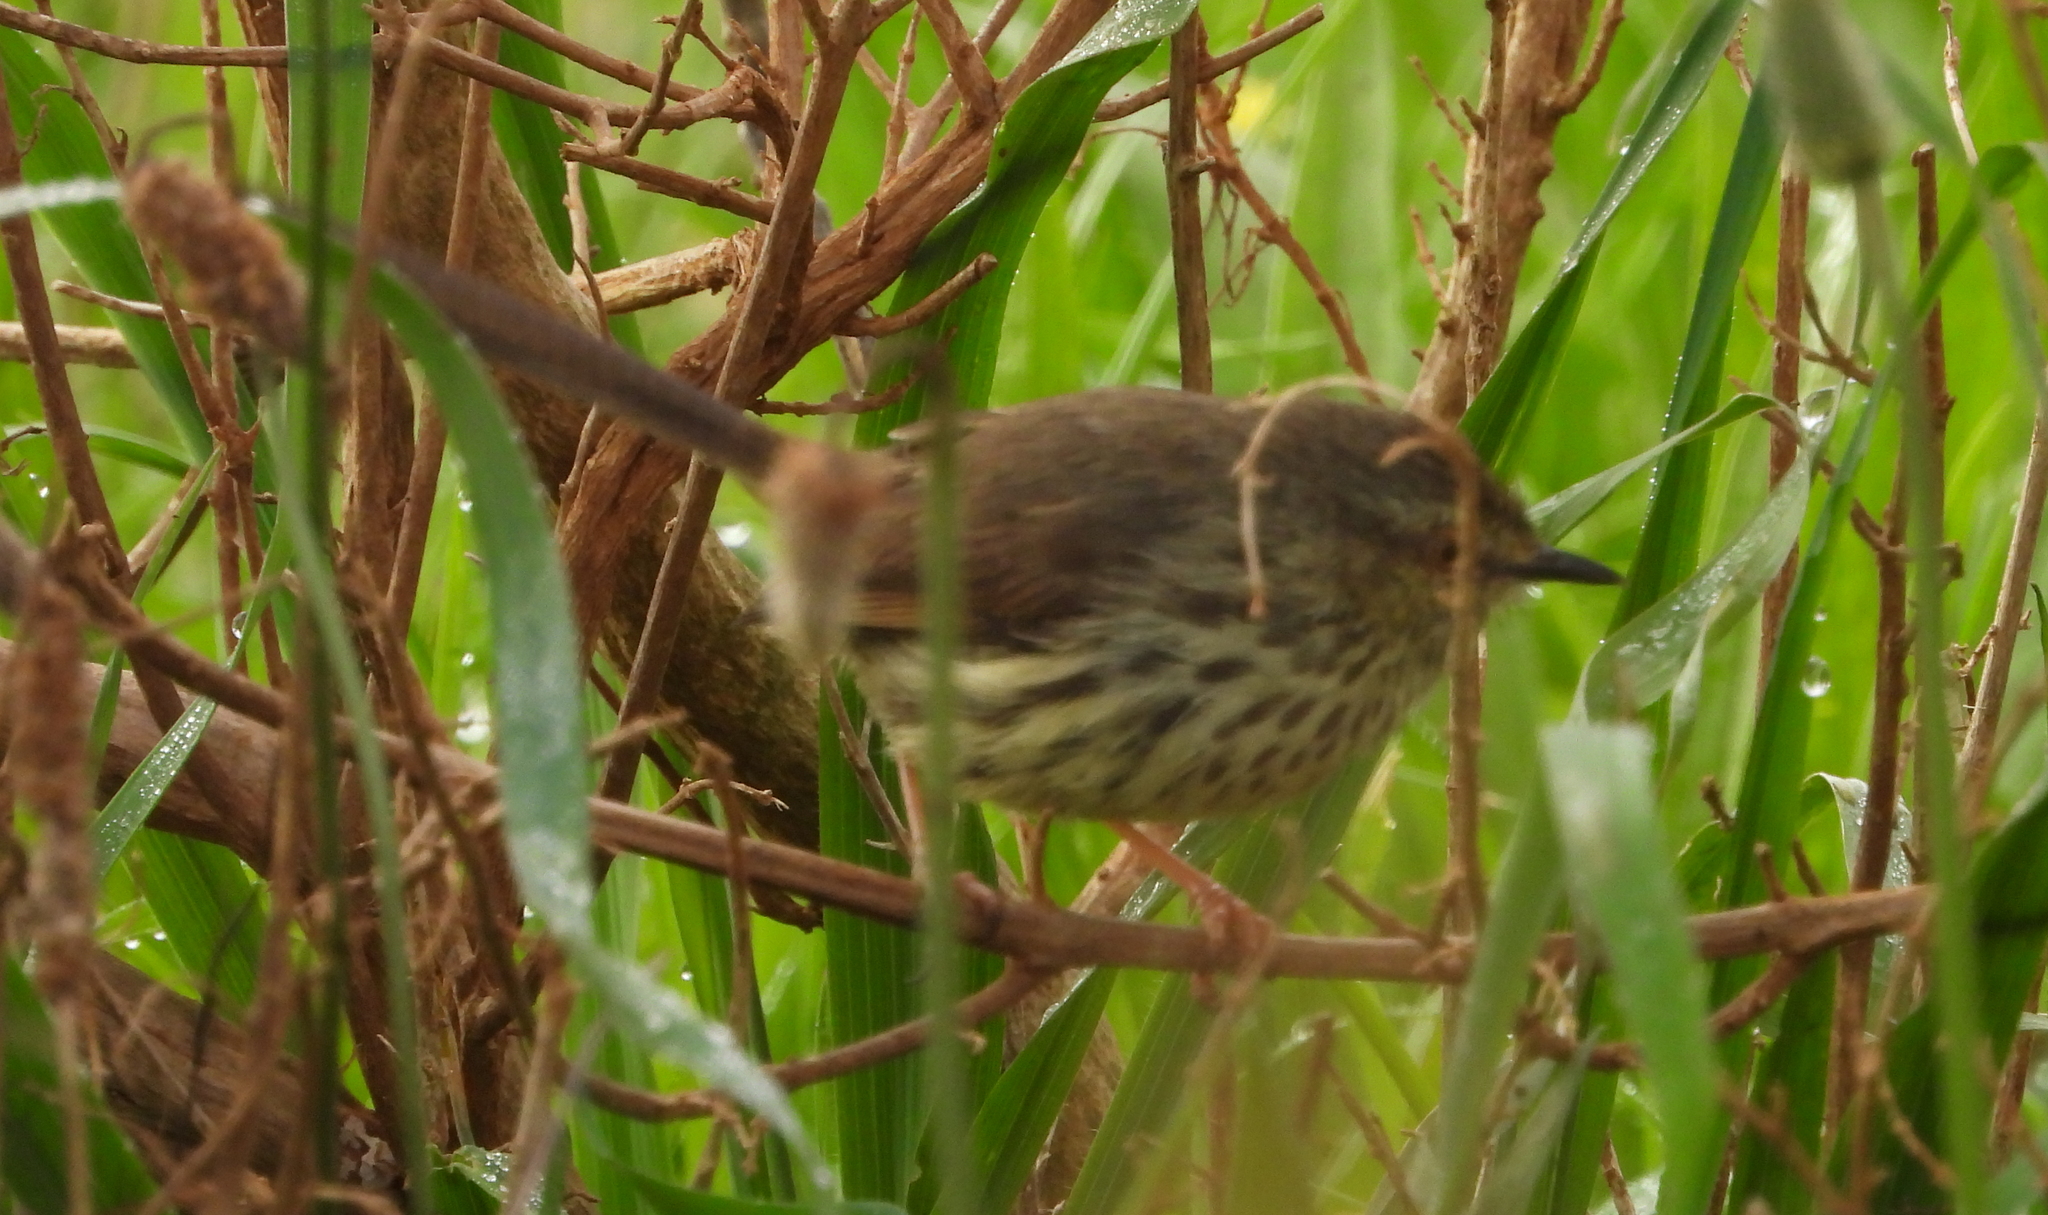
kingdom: Animalia
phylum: Chordata
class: Aves
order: Passeriformes
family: Cisticolidae
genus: Prinia
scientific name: Prinia maculosa
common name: Karoo prinia
